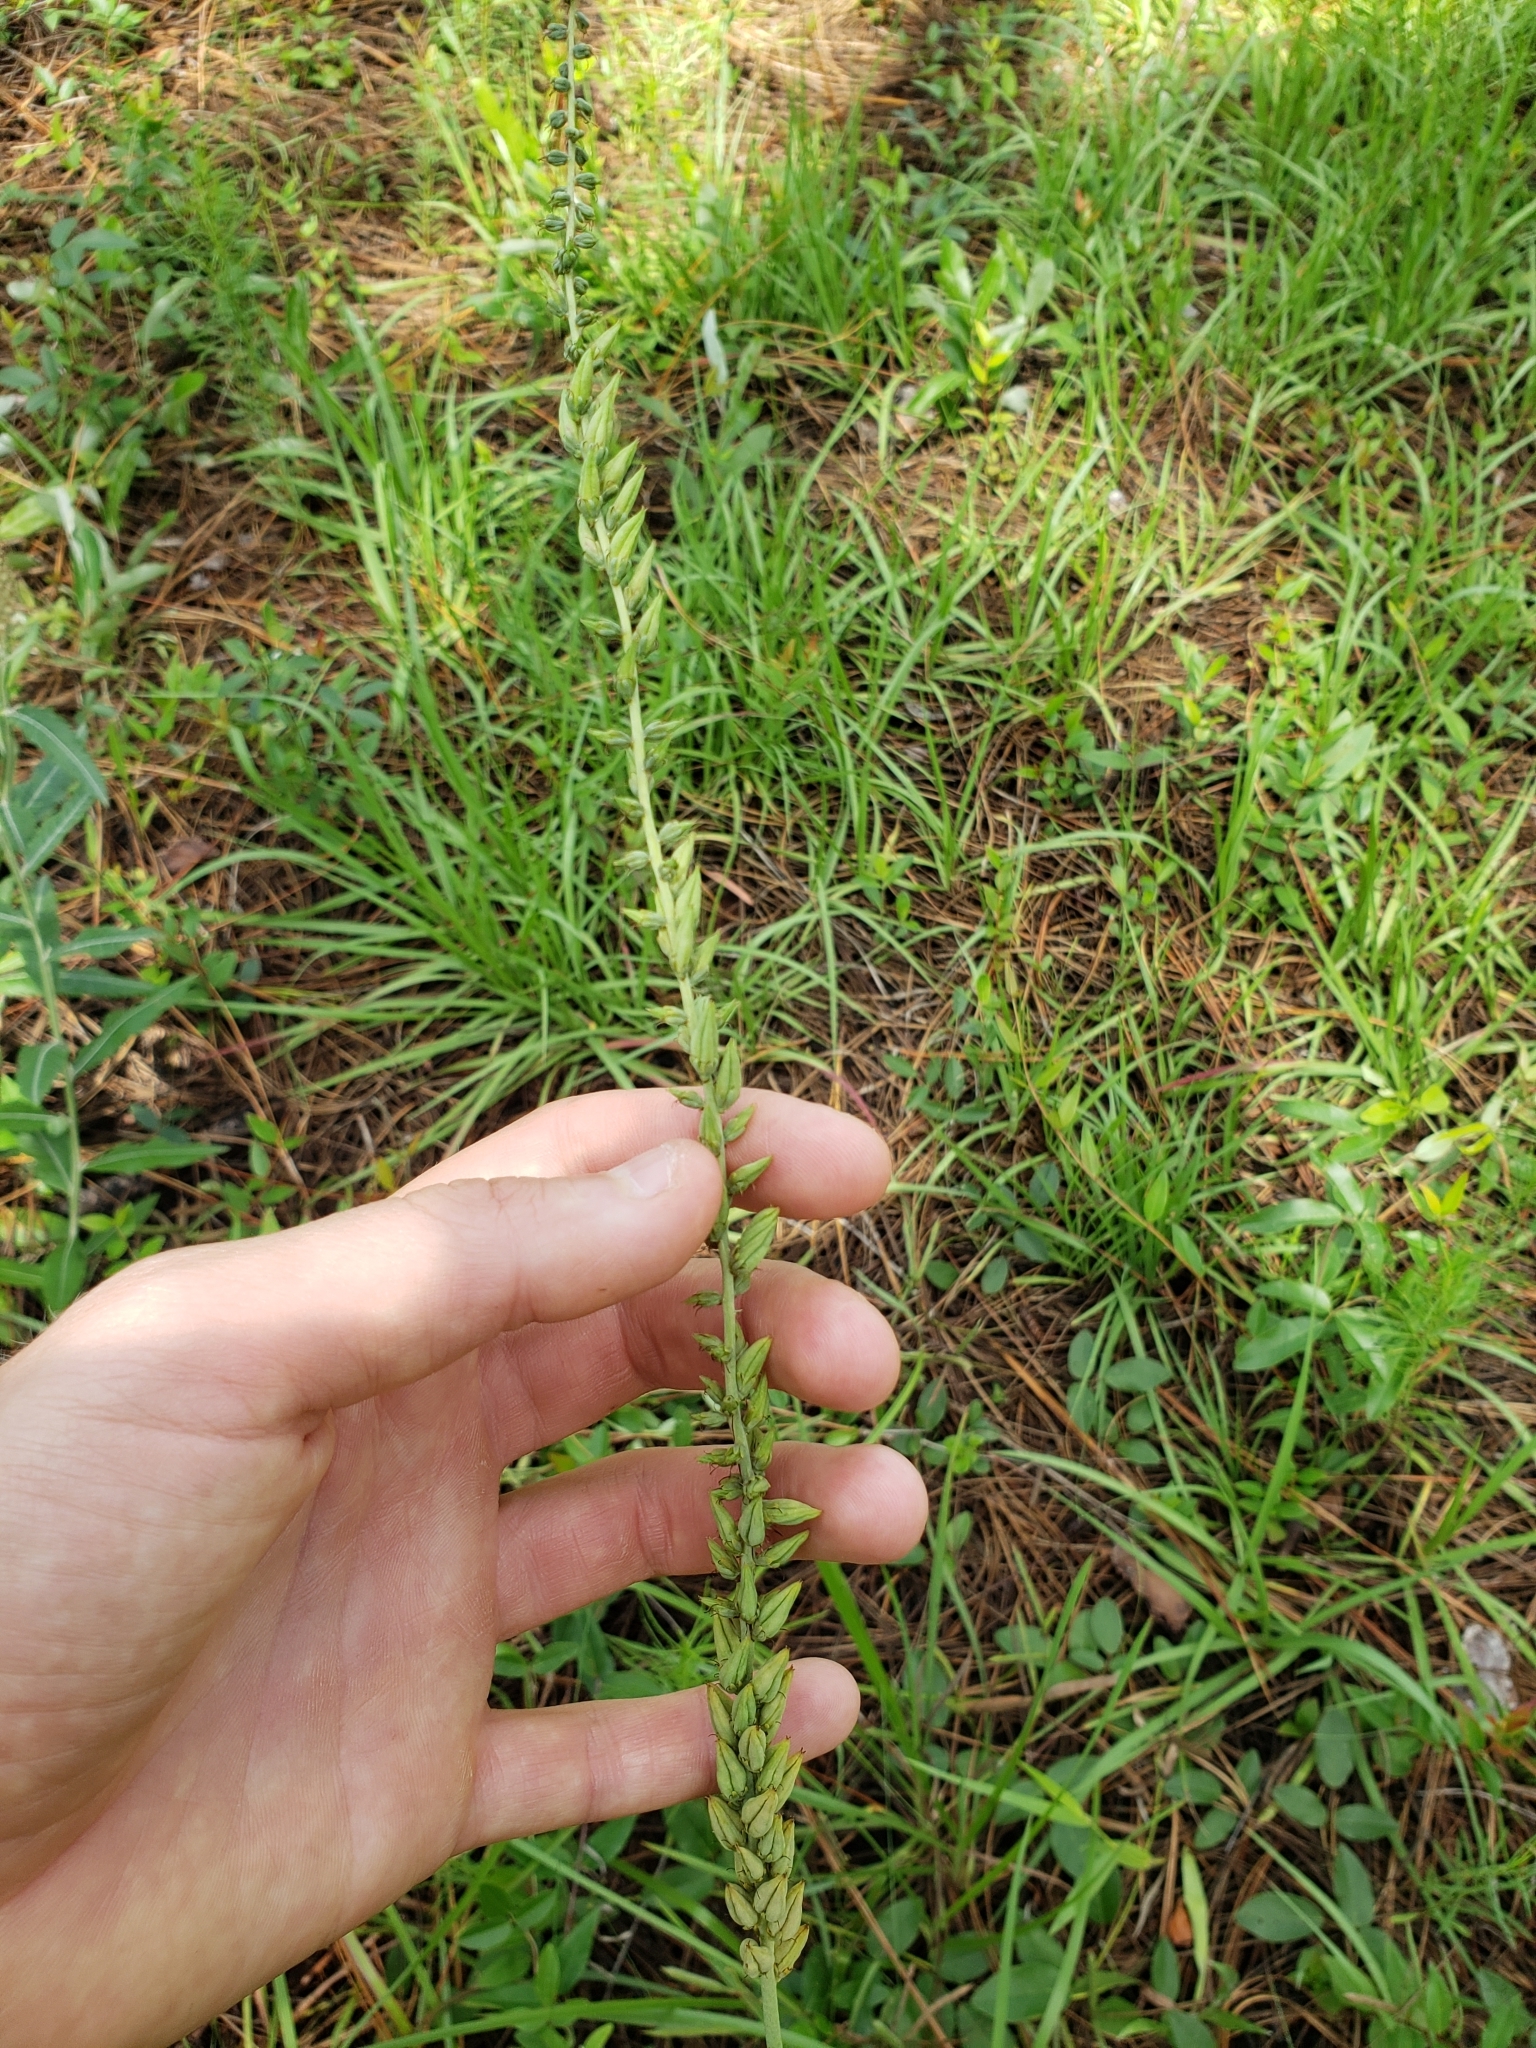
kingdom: Plantae
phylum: Tracheophyta
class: Liliopsida
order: Liliales
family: Melanthiaceae
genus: Schoenocaulon
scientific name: Schoenocaulon dubium
